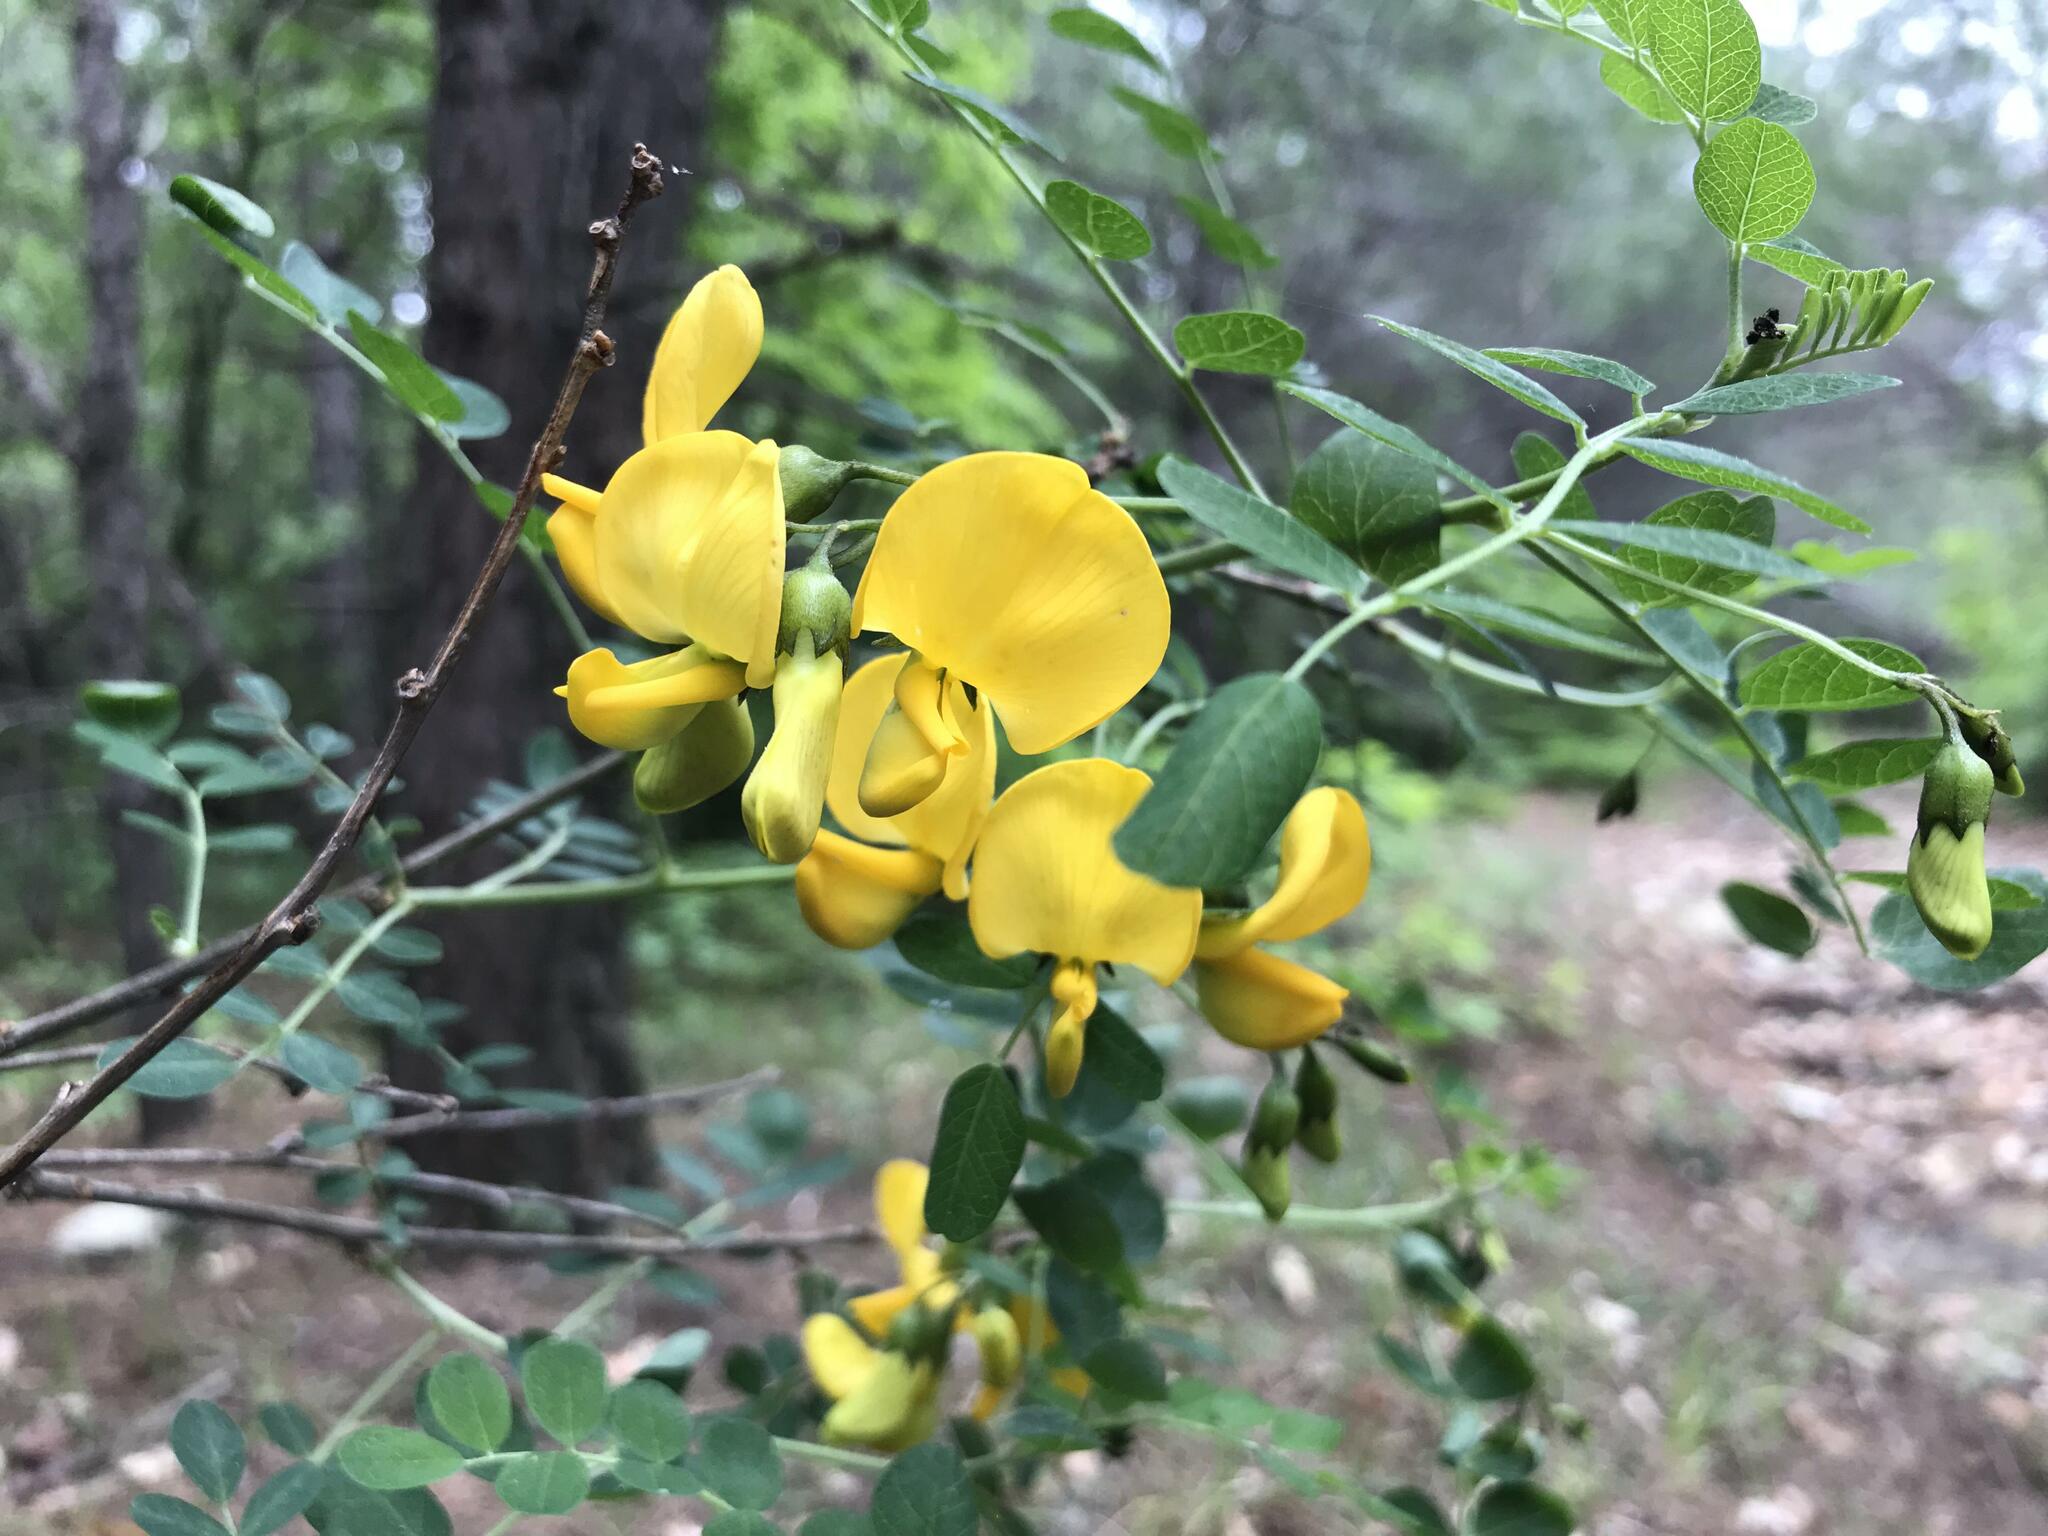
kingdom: Plantae
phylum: Tracheophyta
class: Magnoliopsida
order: Fabales
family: Fabaceae
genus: Colutea
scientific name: Colutea cilicica
